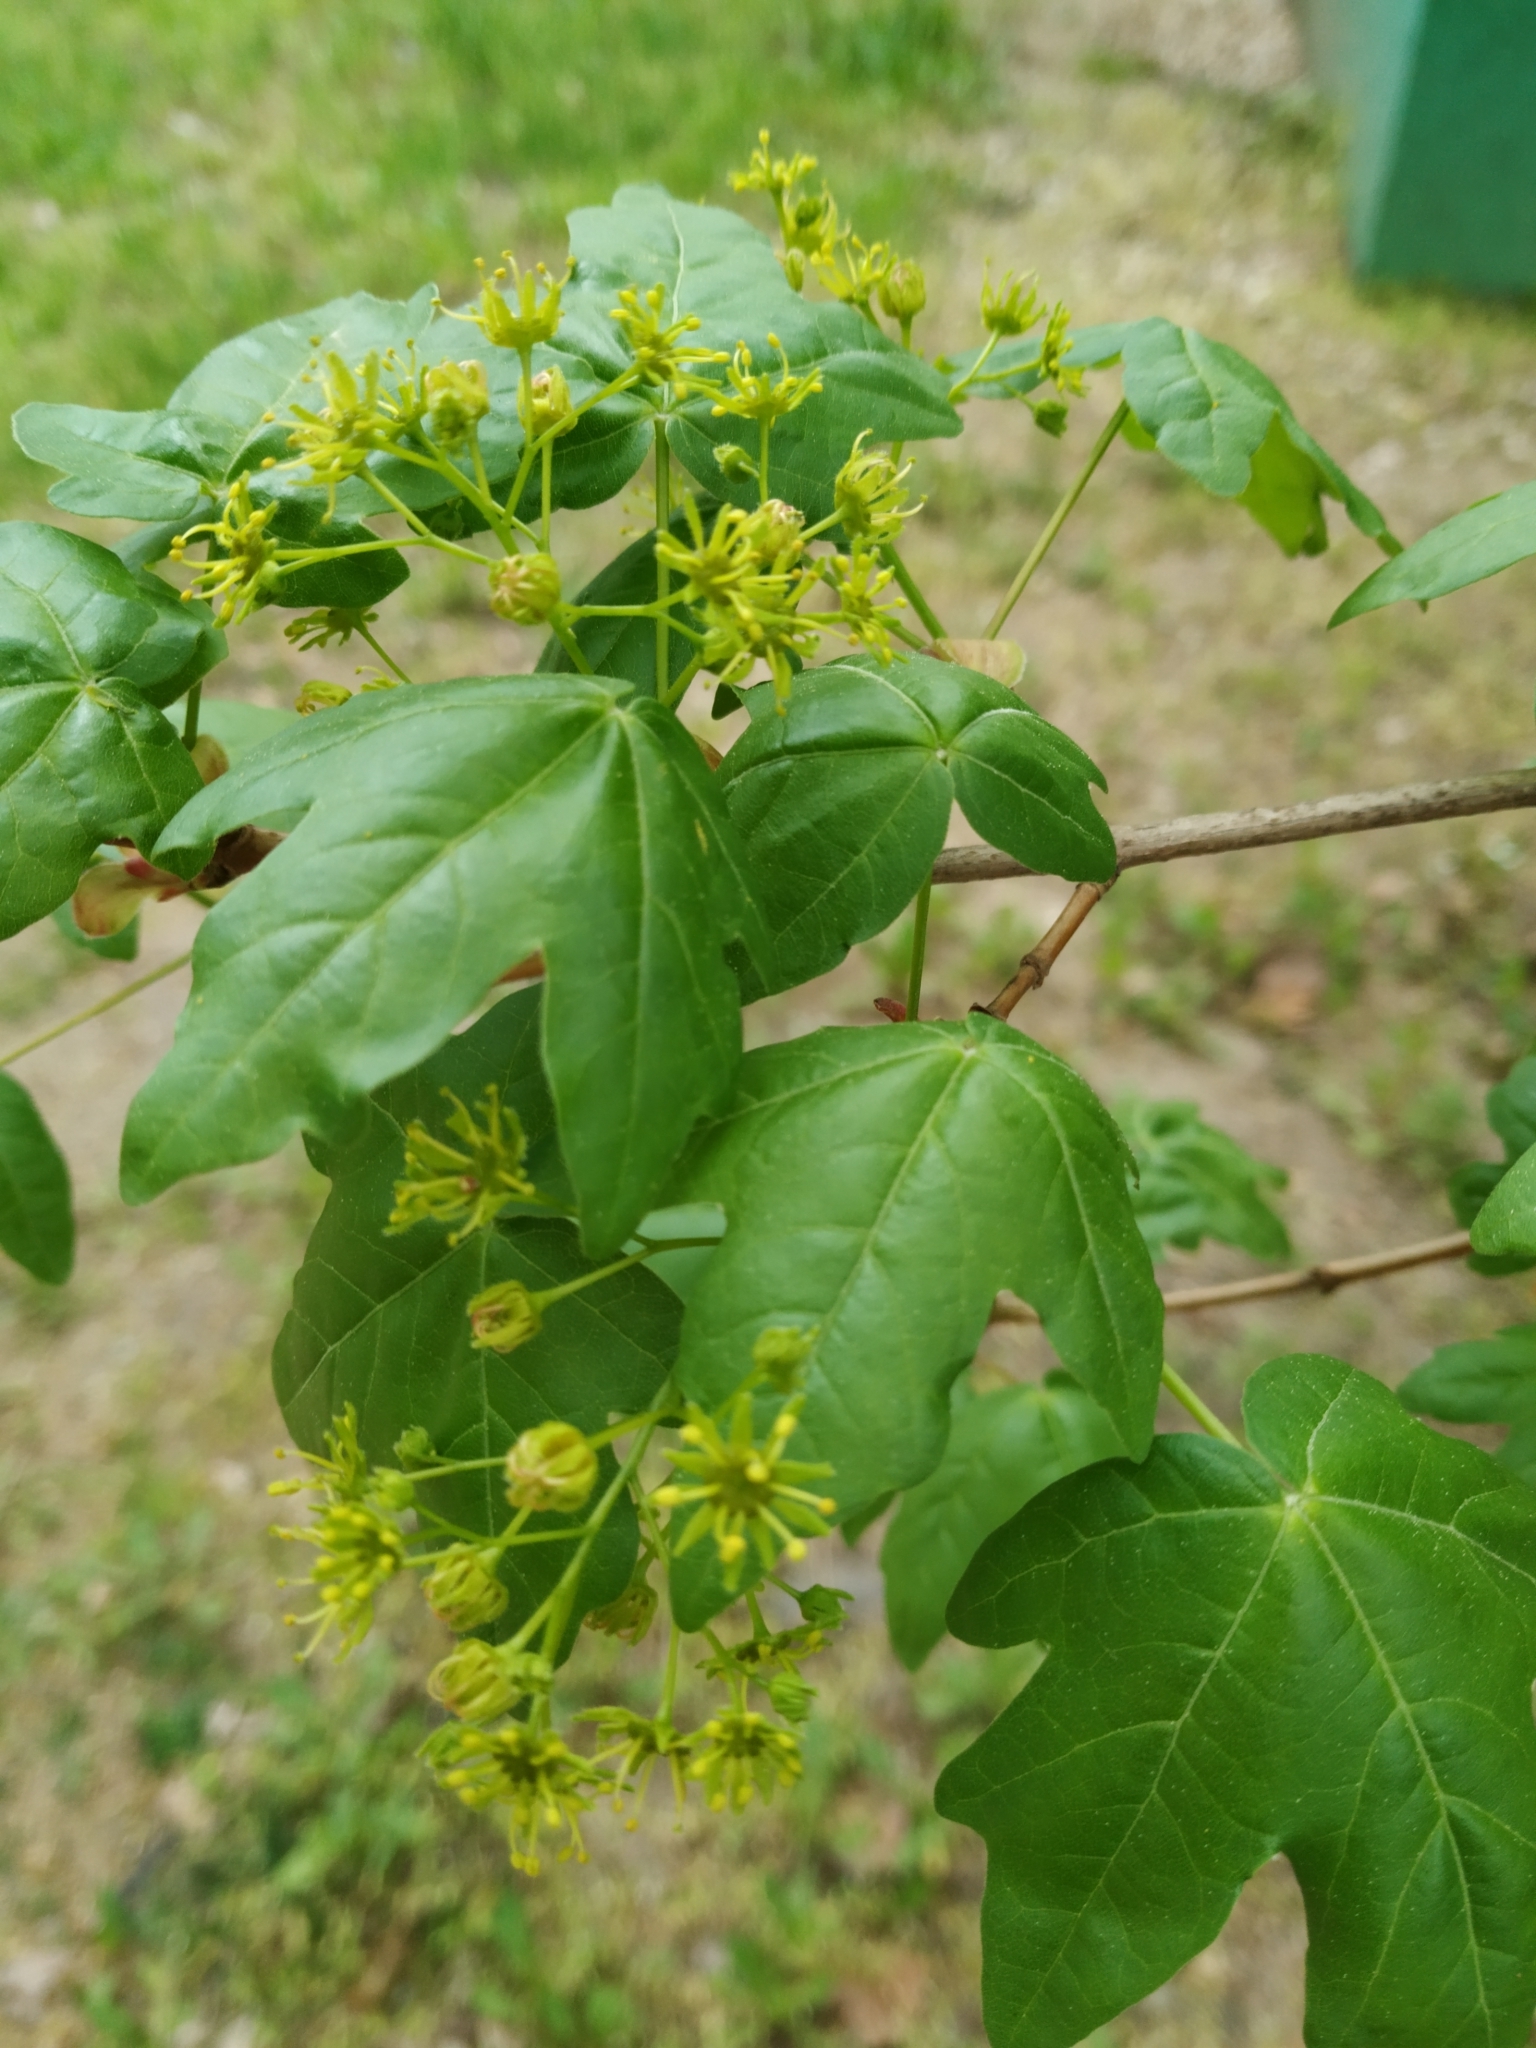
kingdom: Plantae
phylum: Tracheophyta
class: Magnoliopsida
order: Sapindales
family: Sapindaceae
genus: Acer
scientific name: Acer campestre
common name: Field maple
